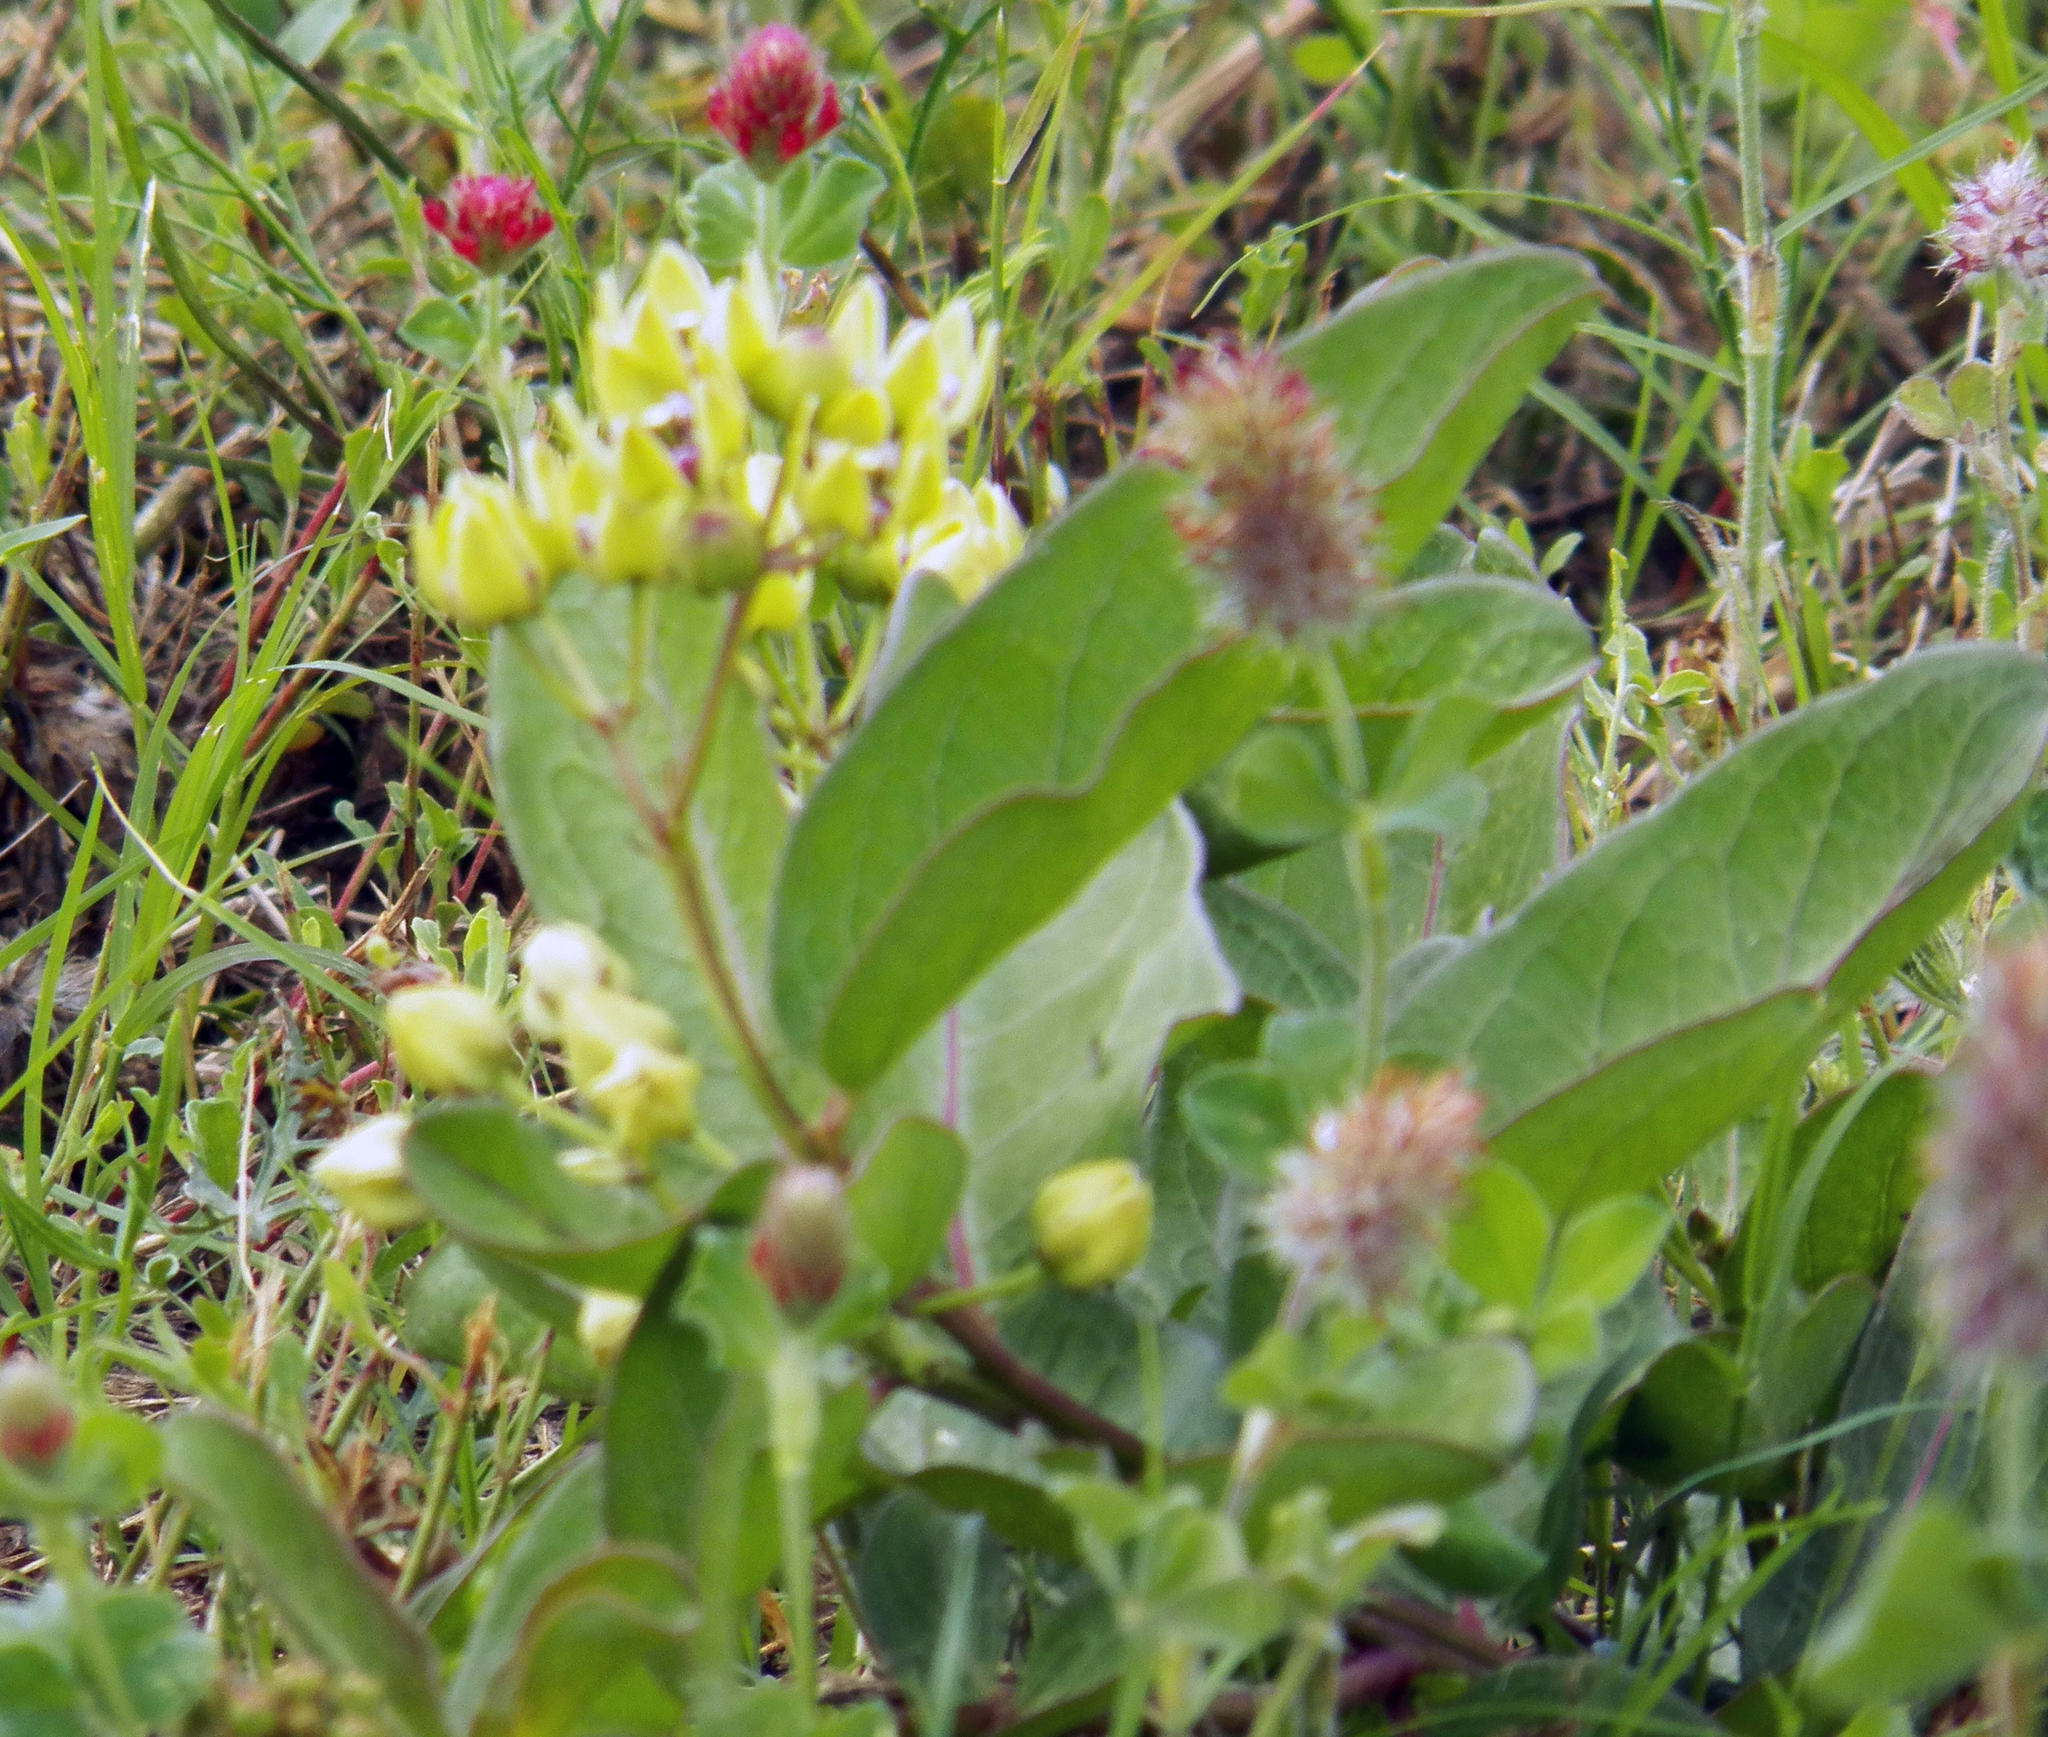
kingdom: Plantae
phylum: Tracheophyta
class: Magnoliopsida
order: Gentianales
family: Apocynaceae
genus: Asclepias
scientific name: Asclepias viridis
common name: Antelope-horns
